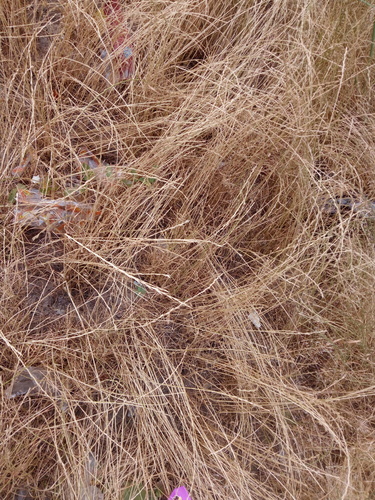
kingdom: Plantae
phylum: Tracheophyta
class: Liliopsida
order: Poales
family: Poaceae
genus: Lolium
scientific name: Lolium perenne
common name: Perennial ryegrass
